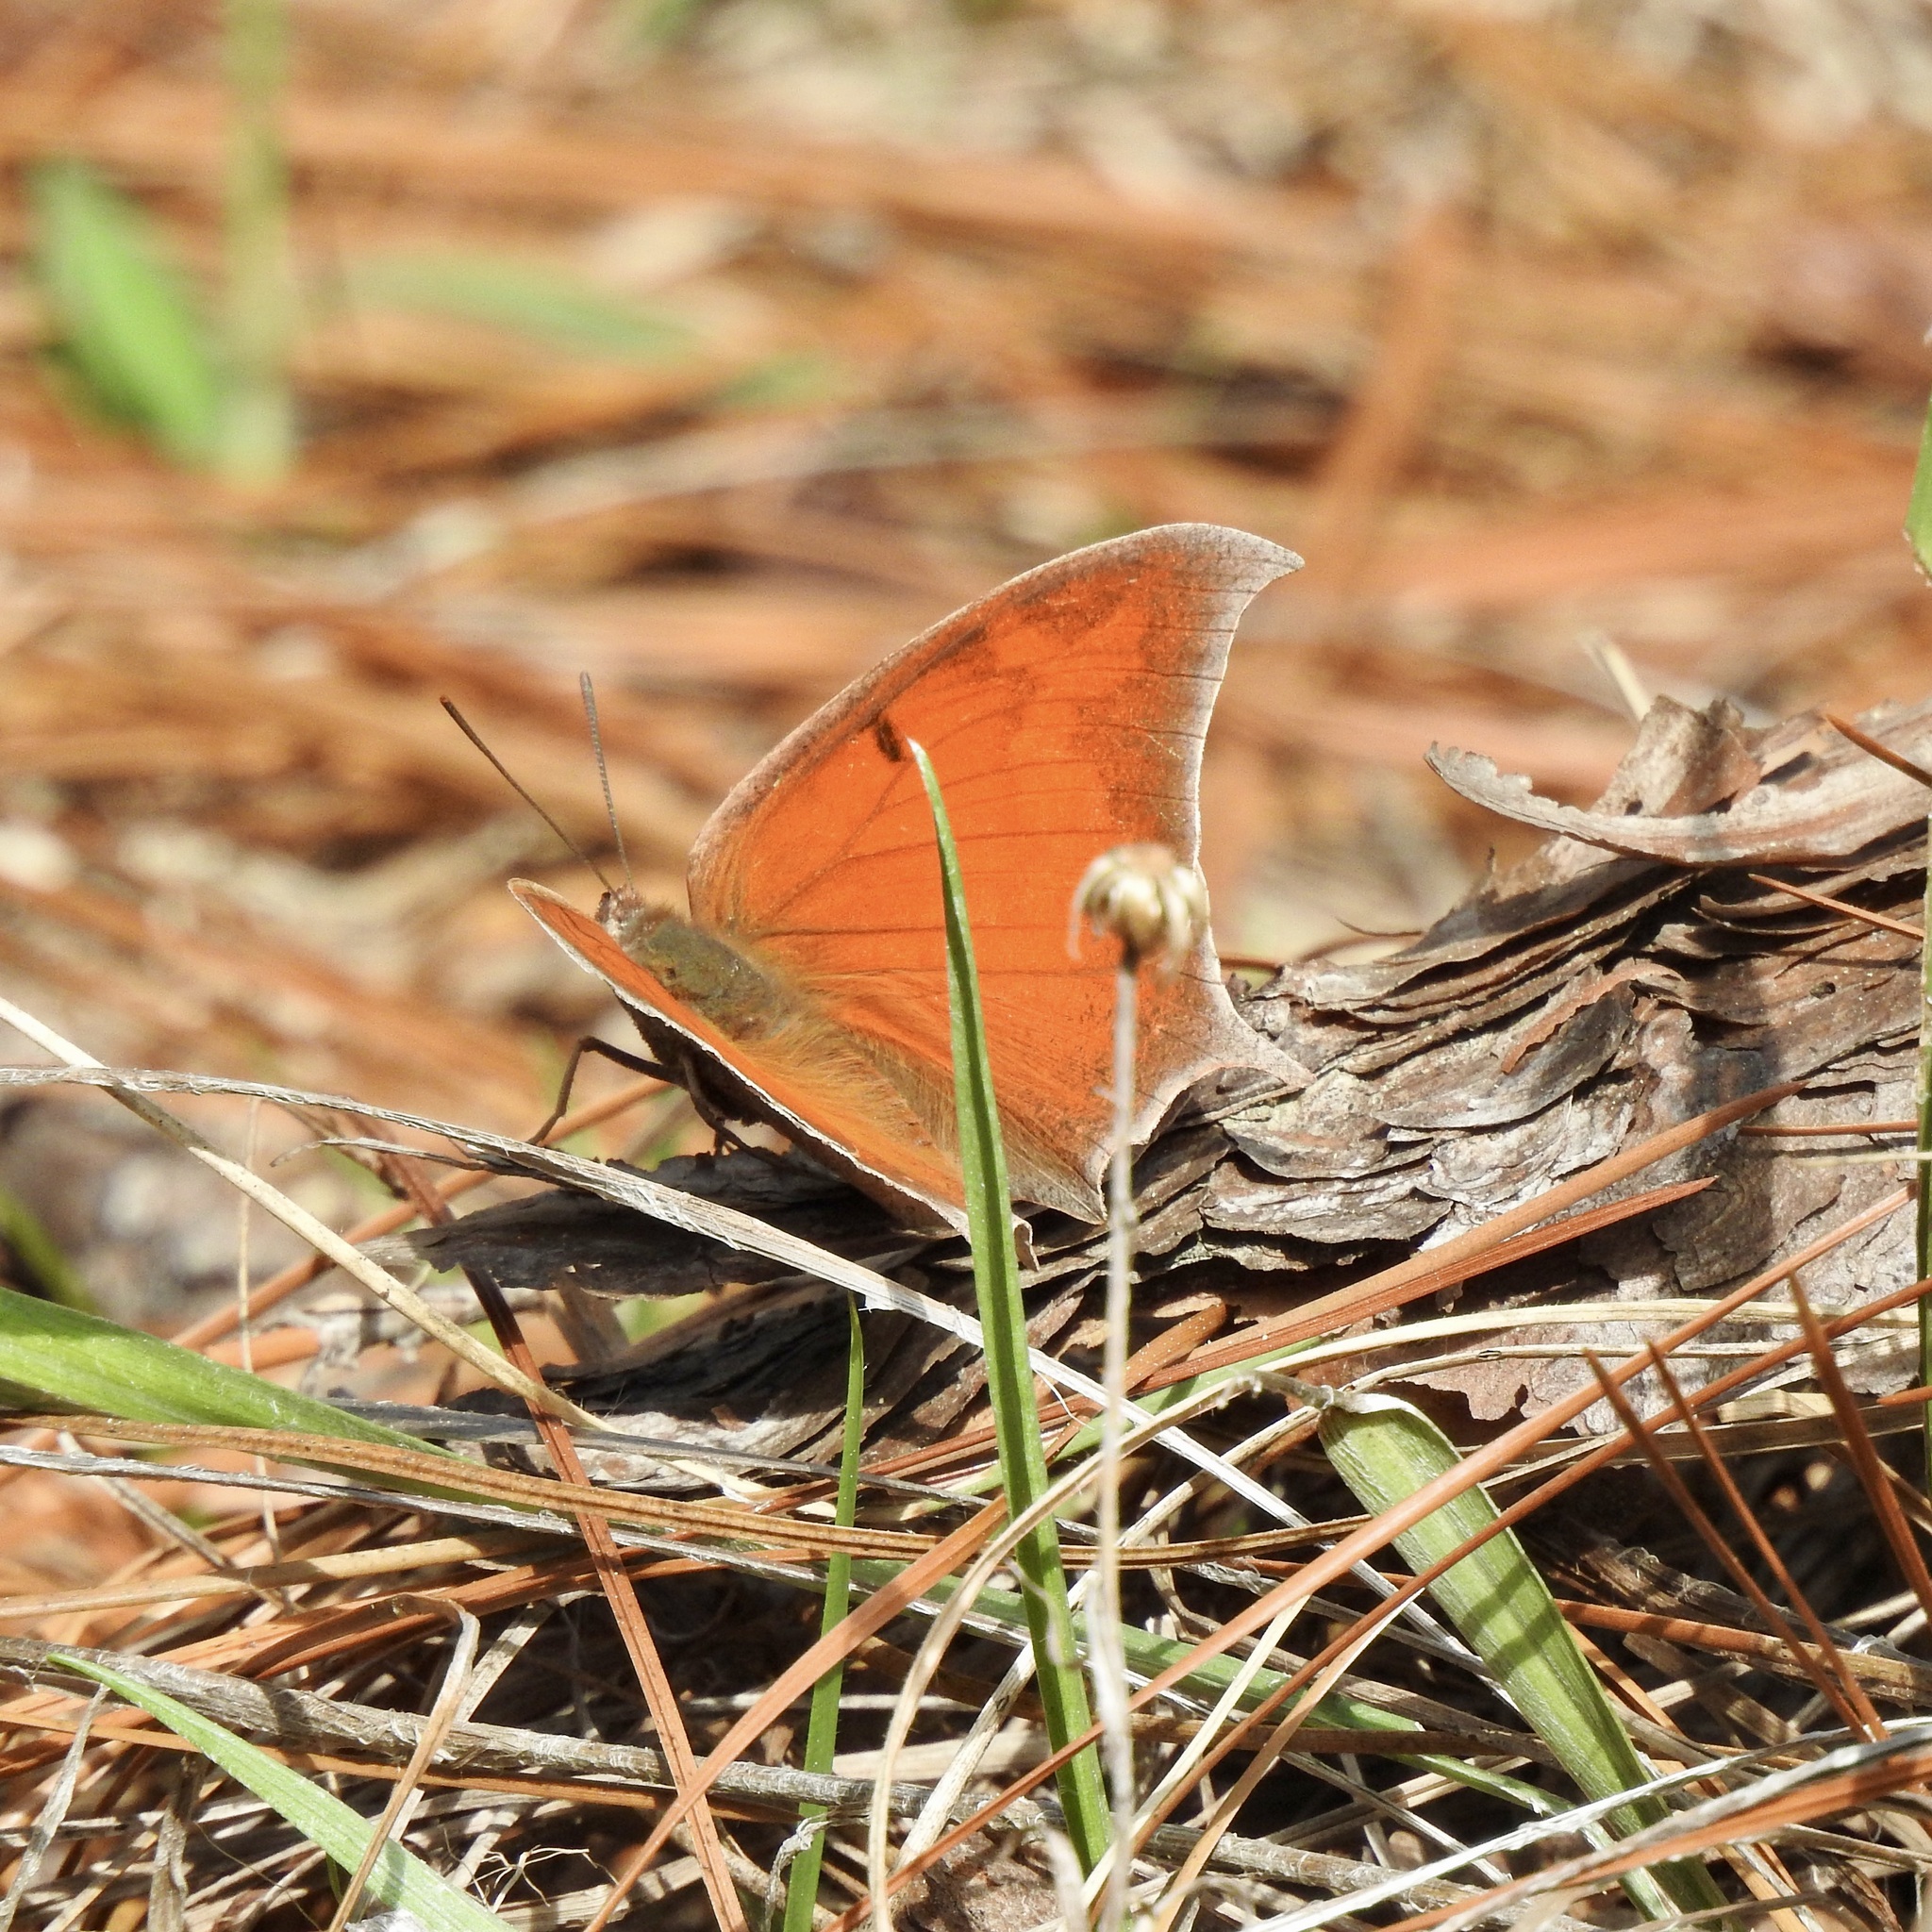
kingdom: Animalia
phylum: Arthropoda
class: Insecta
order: Lepidoptera
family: Nymphalidae
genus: Anaea
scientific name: Anaea andria
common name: Goatweed leafwing
